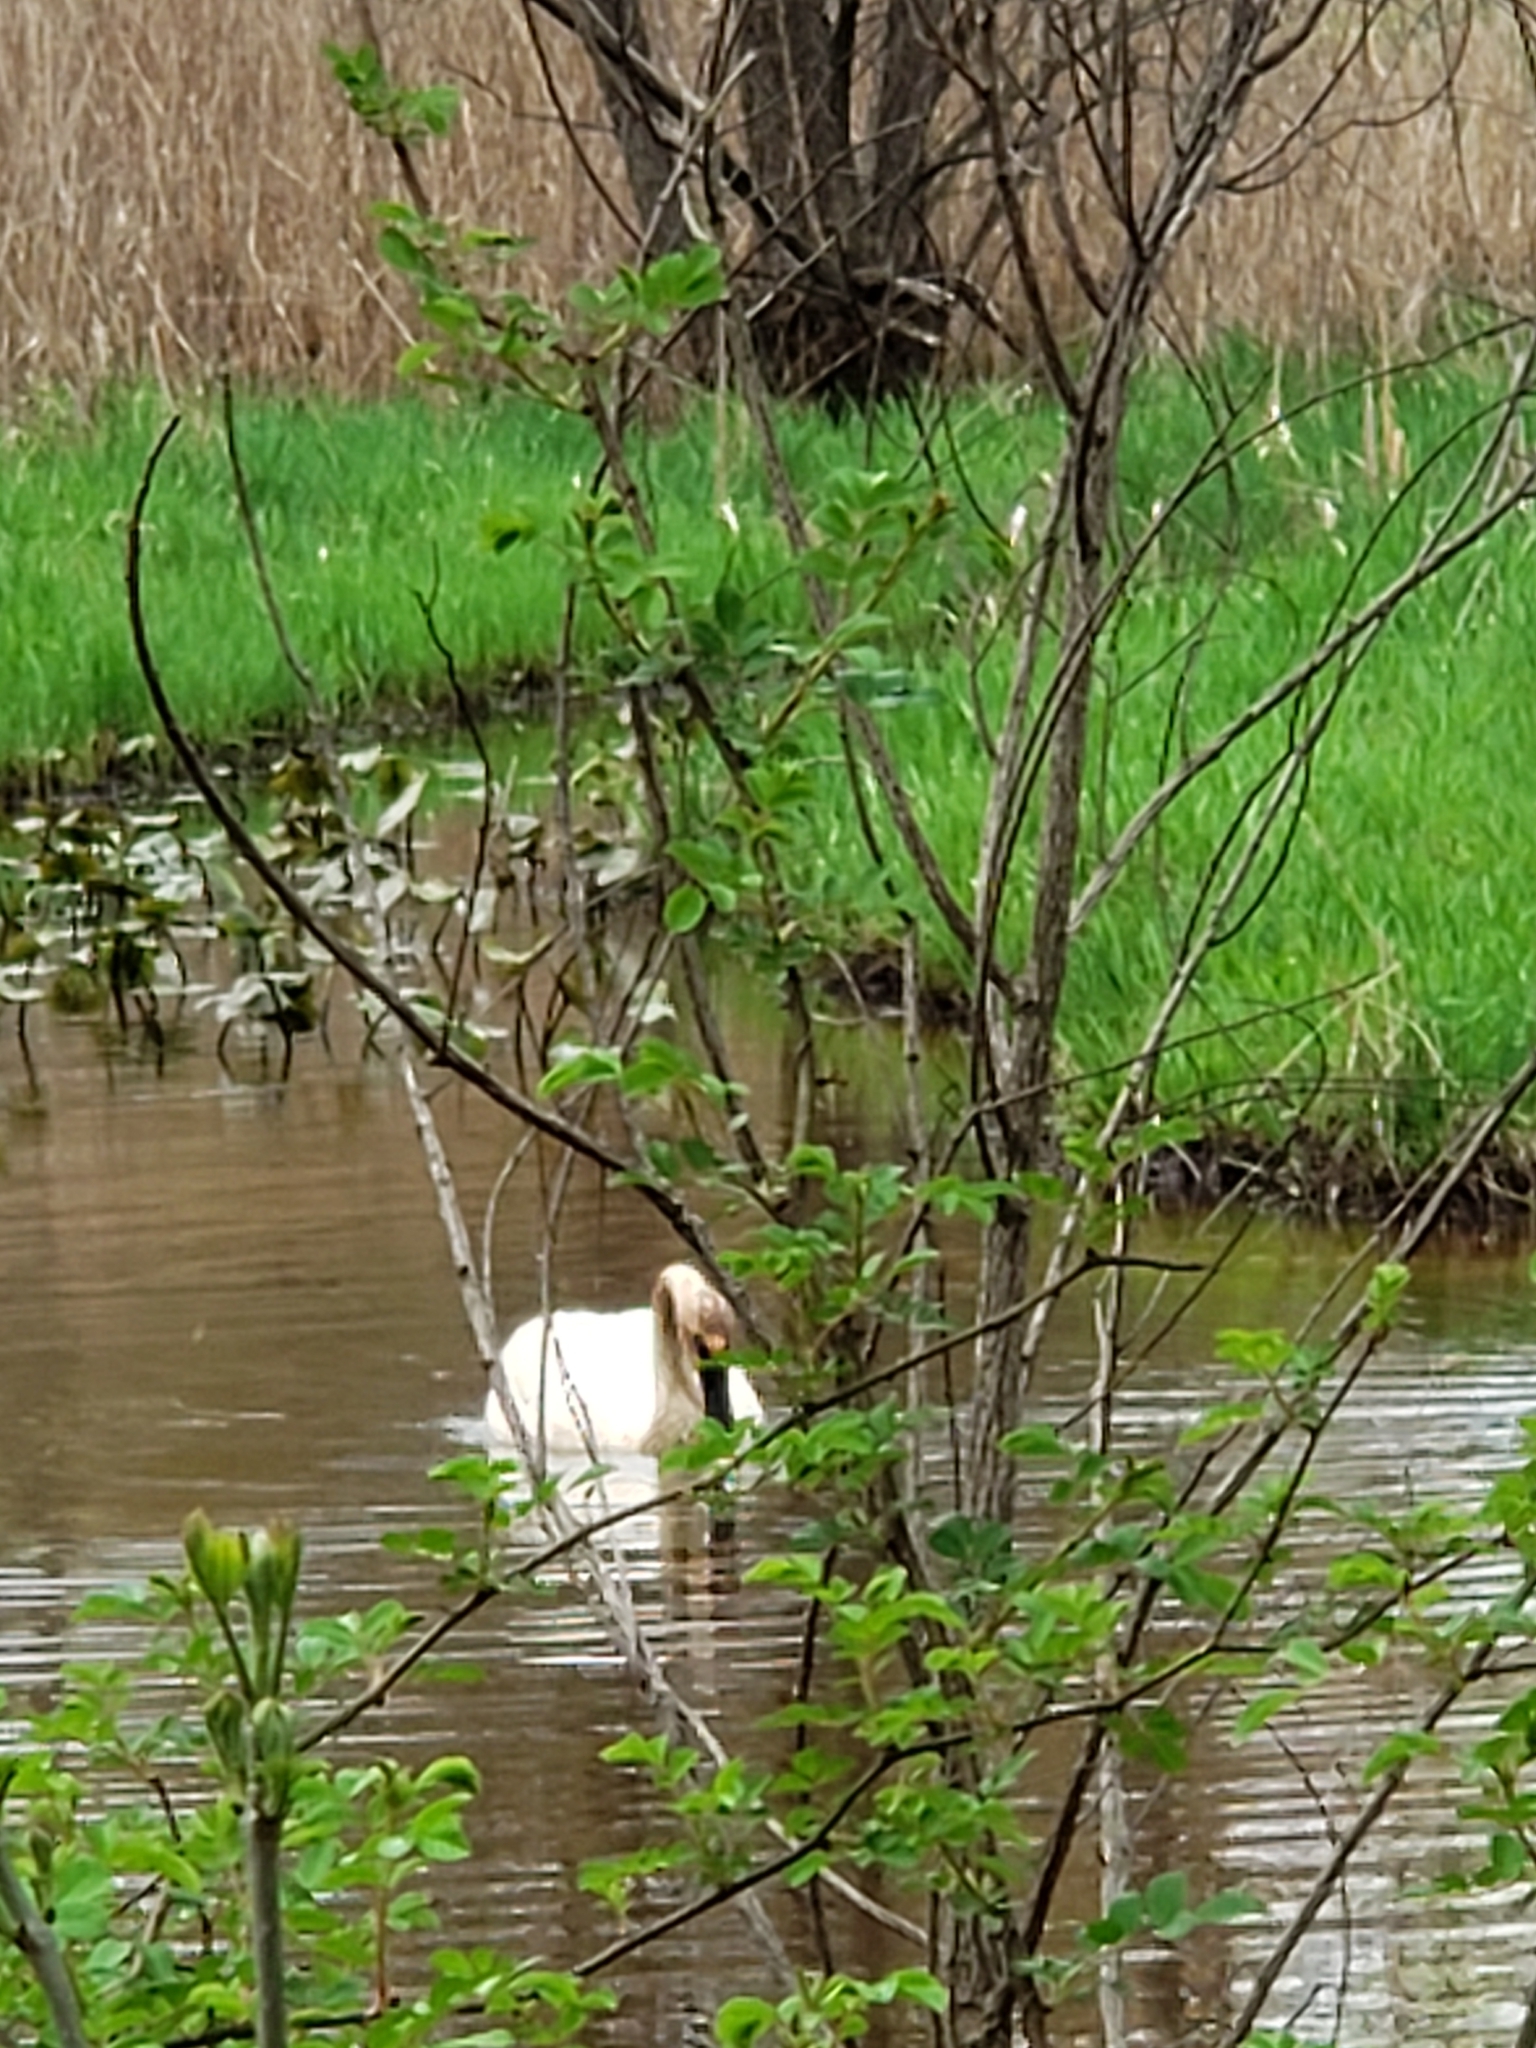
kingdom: Animalia
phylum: Chordata
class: Aves
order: Anseriformes
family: Anatidae
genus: Cygnus
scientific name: Cygnus buccinator
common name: Trumpeter swan
